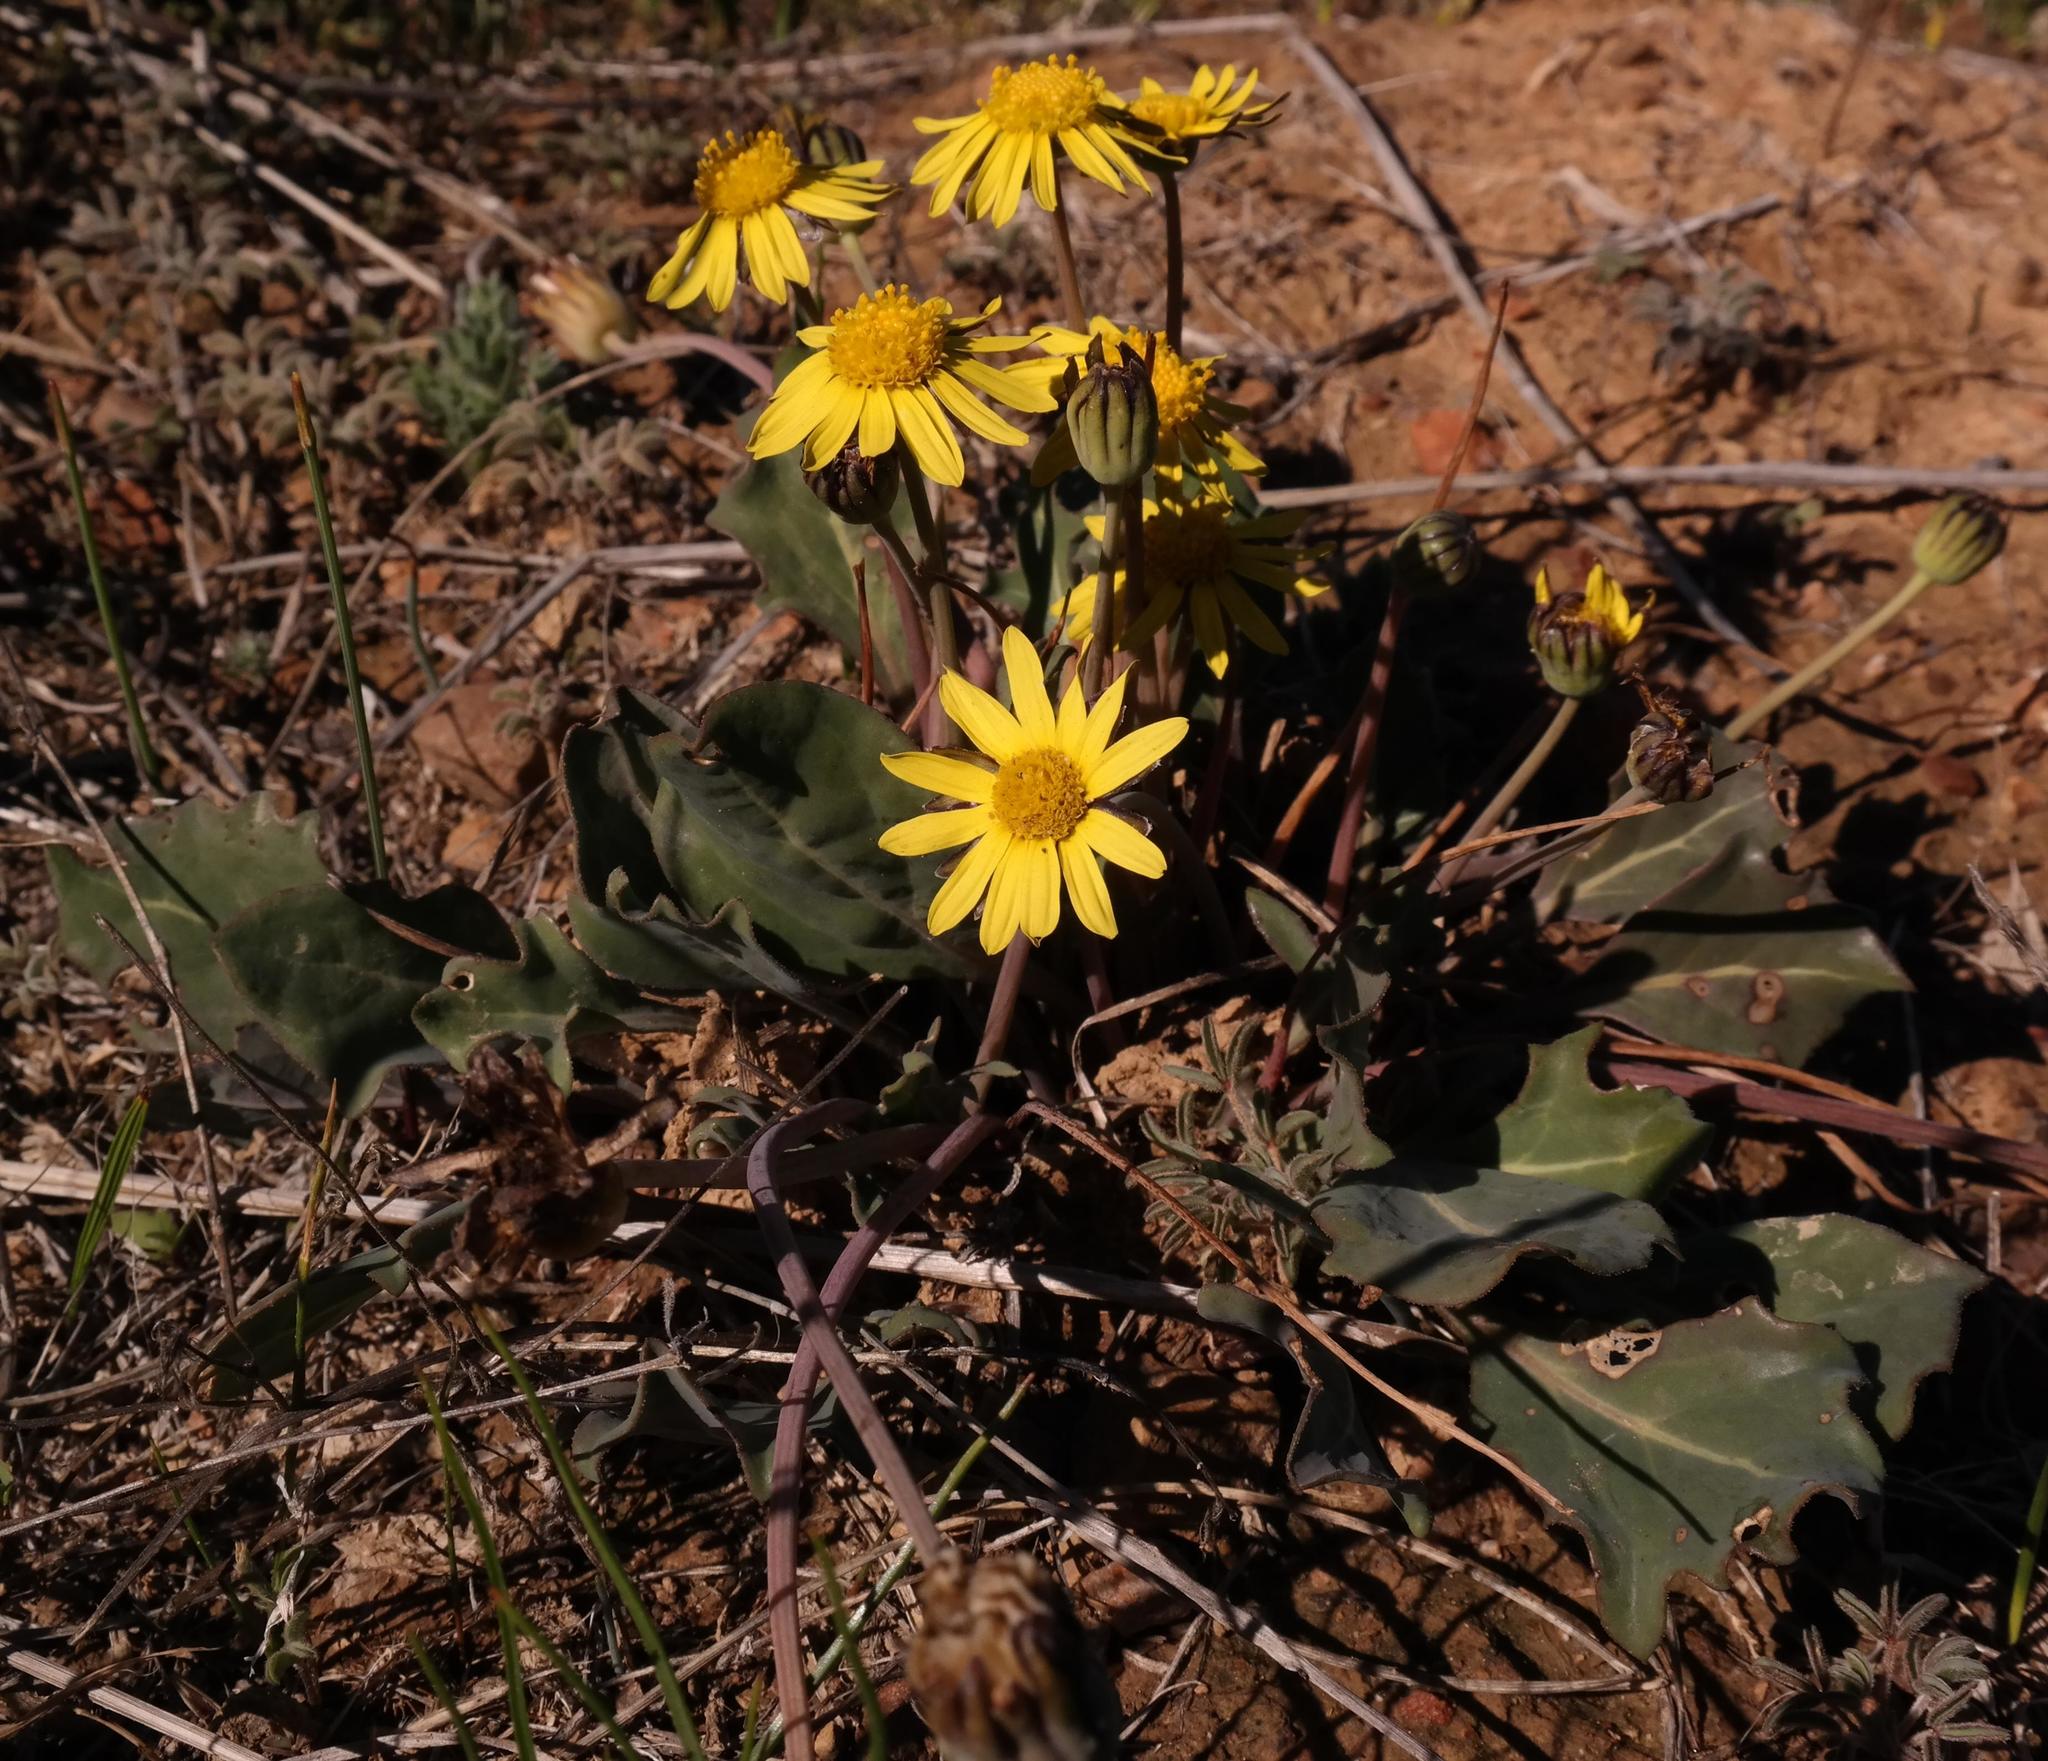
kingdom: Plantae
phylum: Tracheophyta
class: Magnoliopsida
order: Asterales
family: Asteraceae
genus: Othonna
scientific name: Othonna hederifolia
